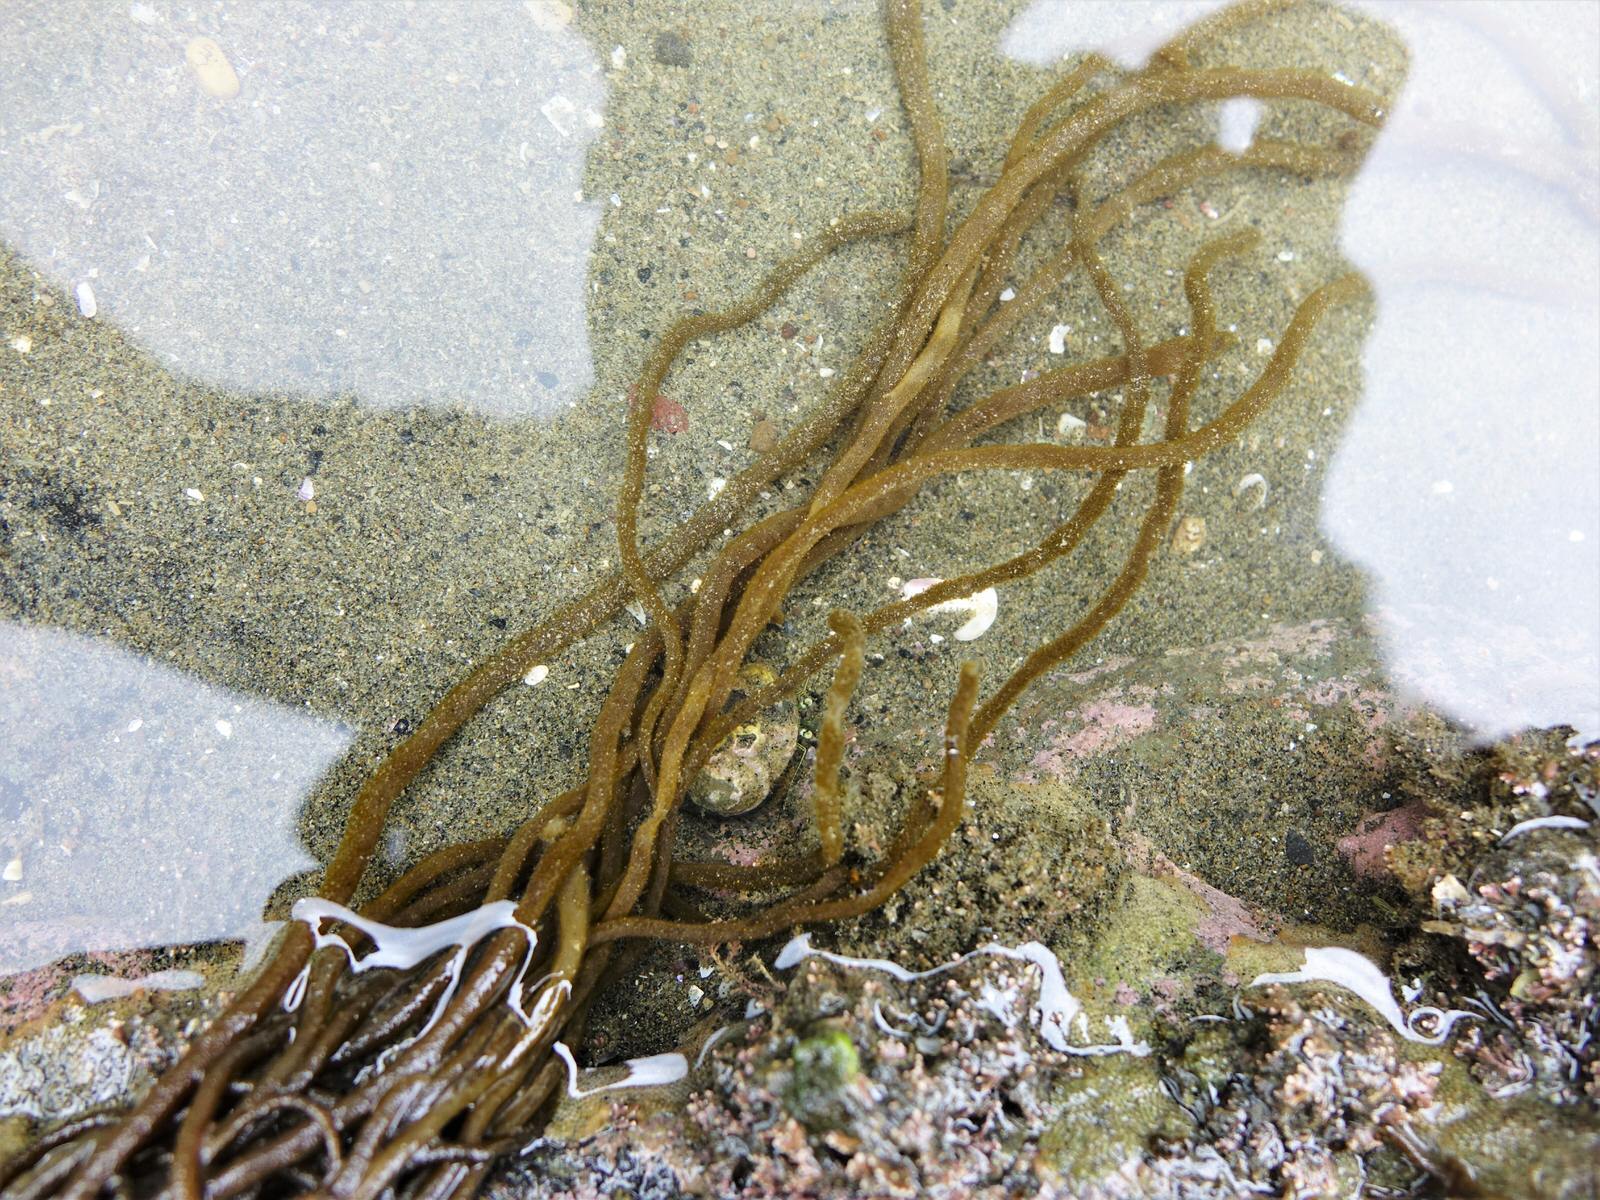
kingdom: Chromista
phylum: Ochrophyta
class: Phaeophyceae
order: Ectocarpales
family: Chordariaceae
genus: Myriogloea
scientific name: Myriogloea intestinalis
